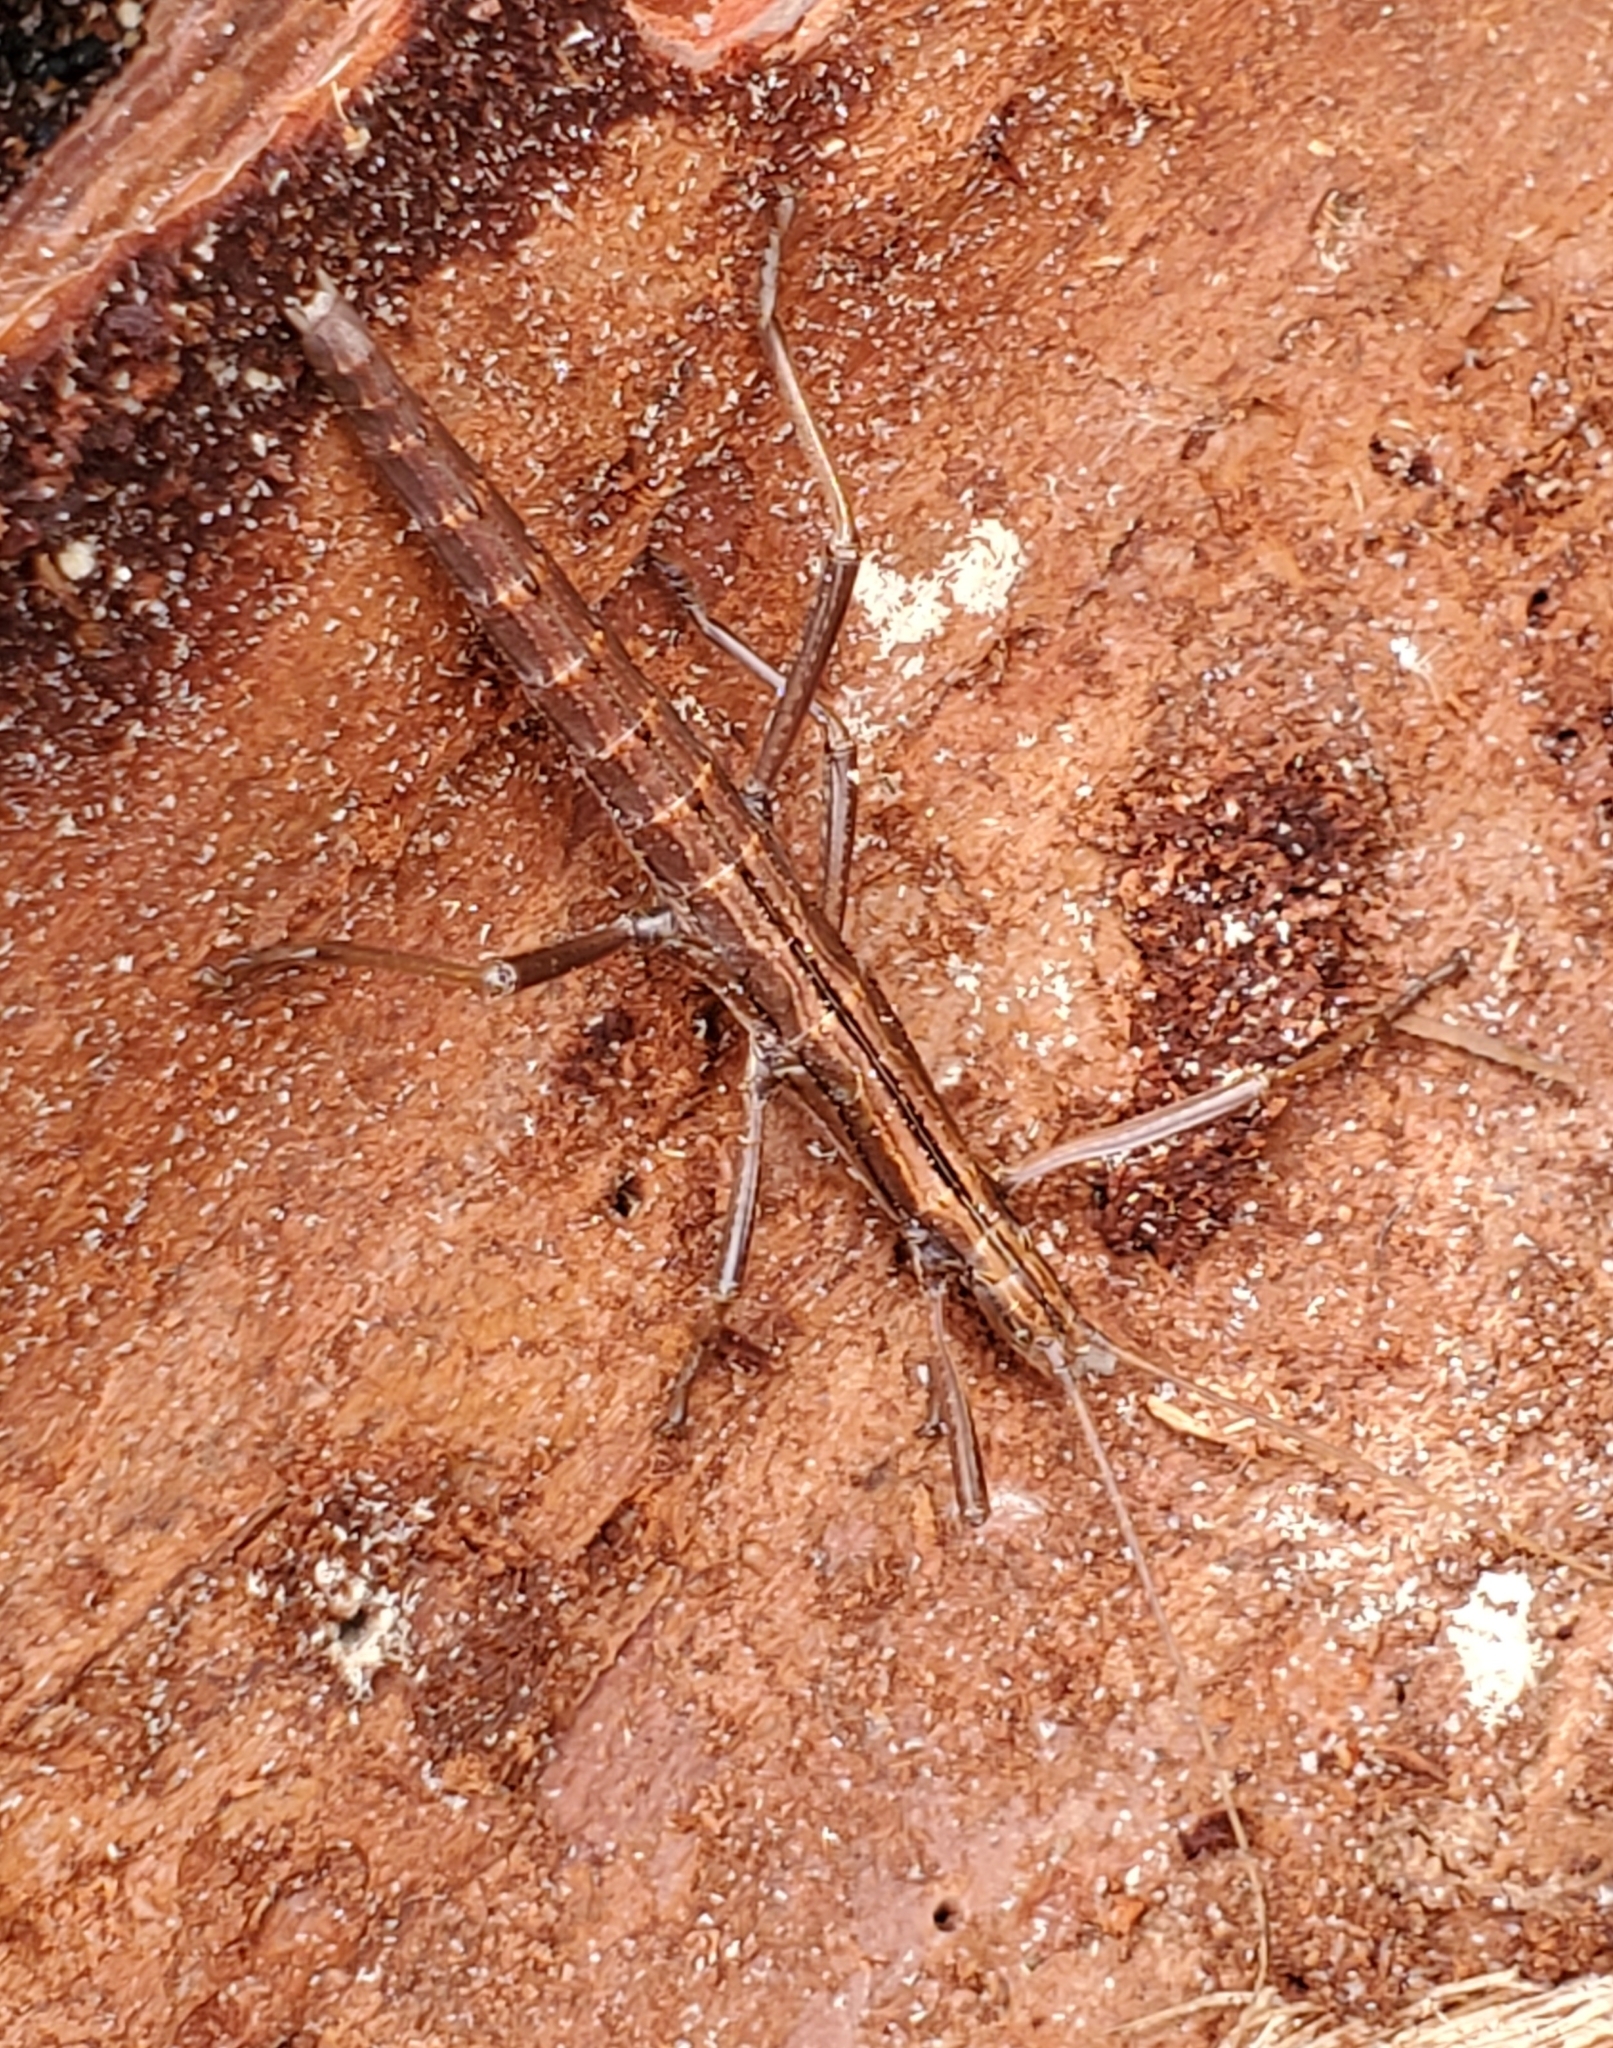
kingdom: Animalia
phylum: Arthropoda
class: Insecta
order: Phasmida
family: Pseudophasmatidae
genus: Anisomorpha
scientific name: Anisomorpha buprestoides
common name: Florida stick insect
